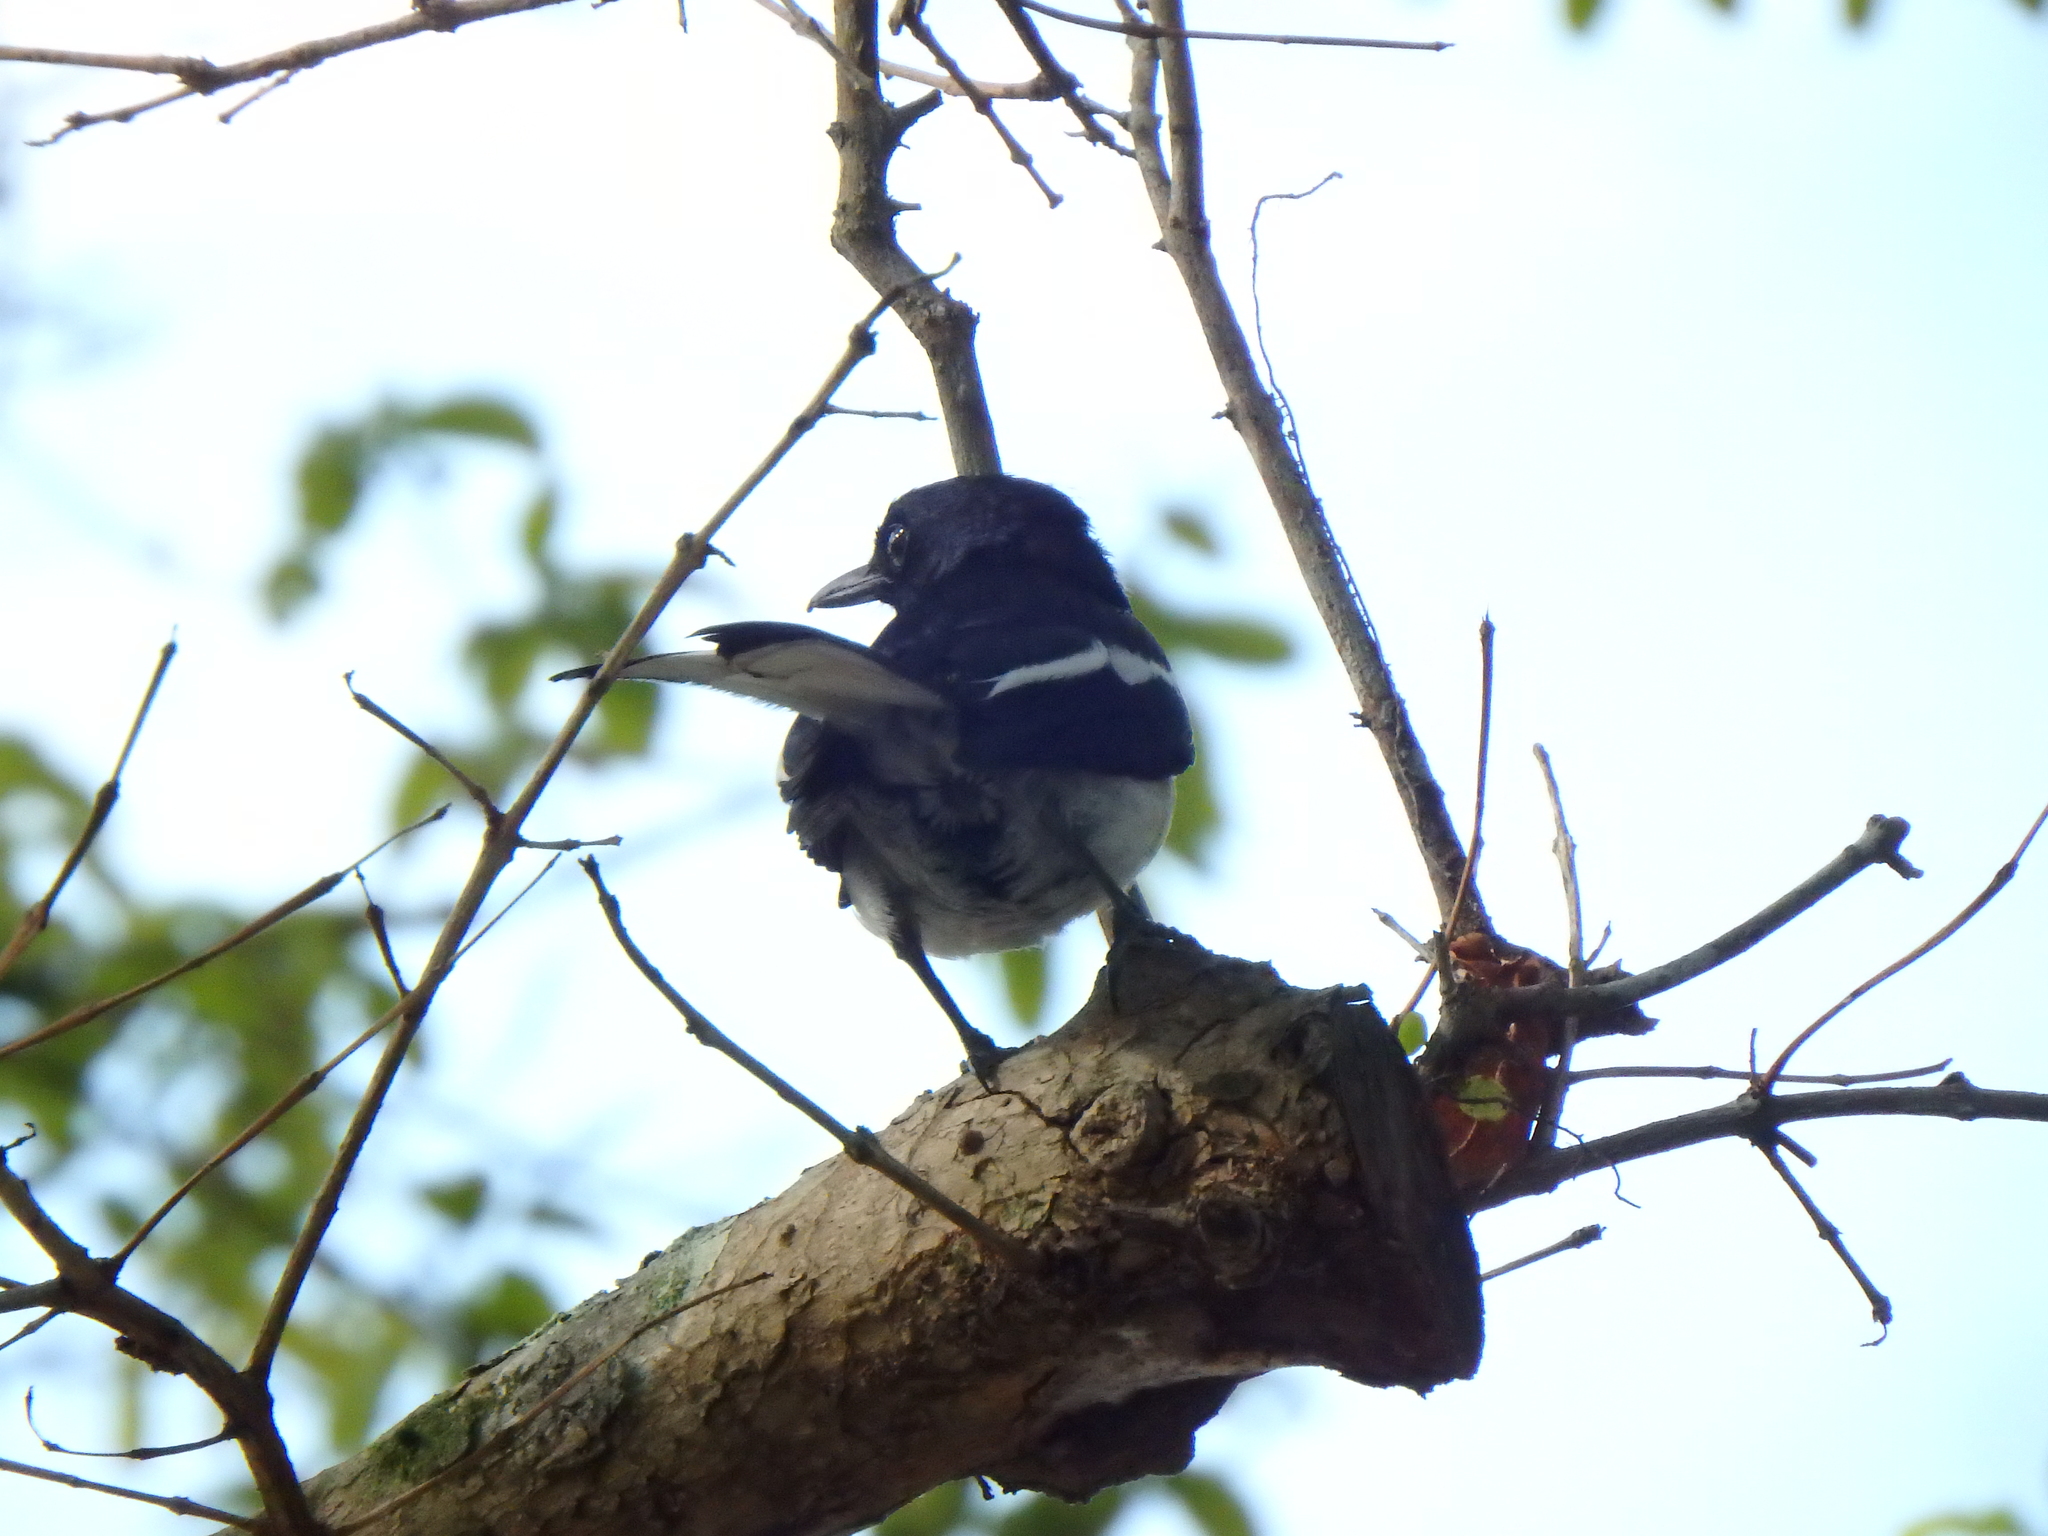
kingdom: Animalia
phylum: Chordata
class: Aves
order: Passeriformes
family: Muscicapidae
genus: Copsychus
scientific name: Copsychus saularis
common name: Oriental magpie-robin
